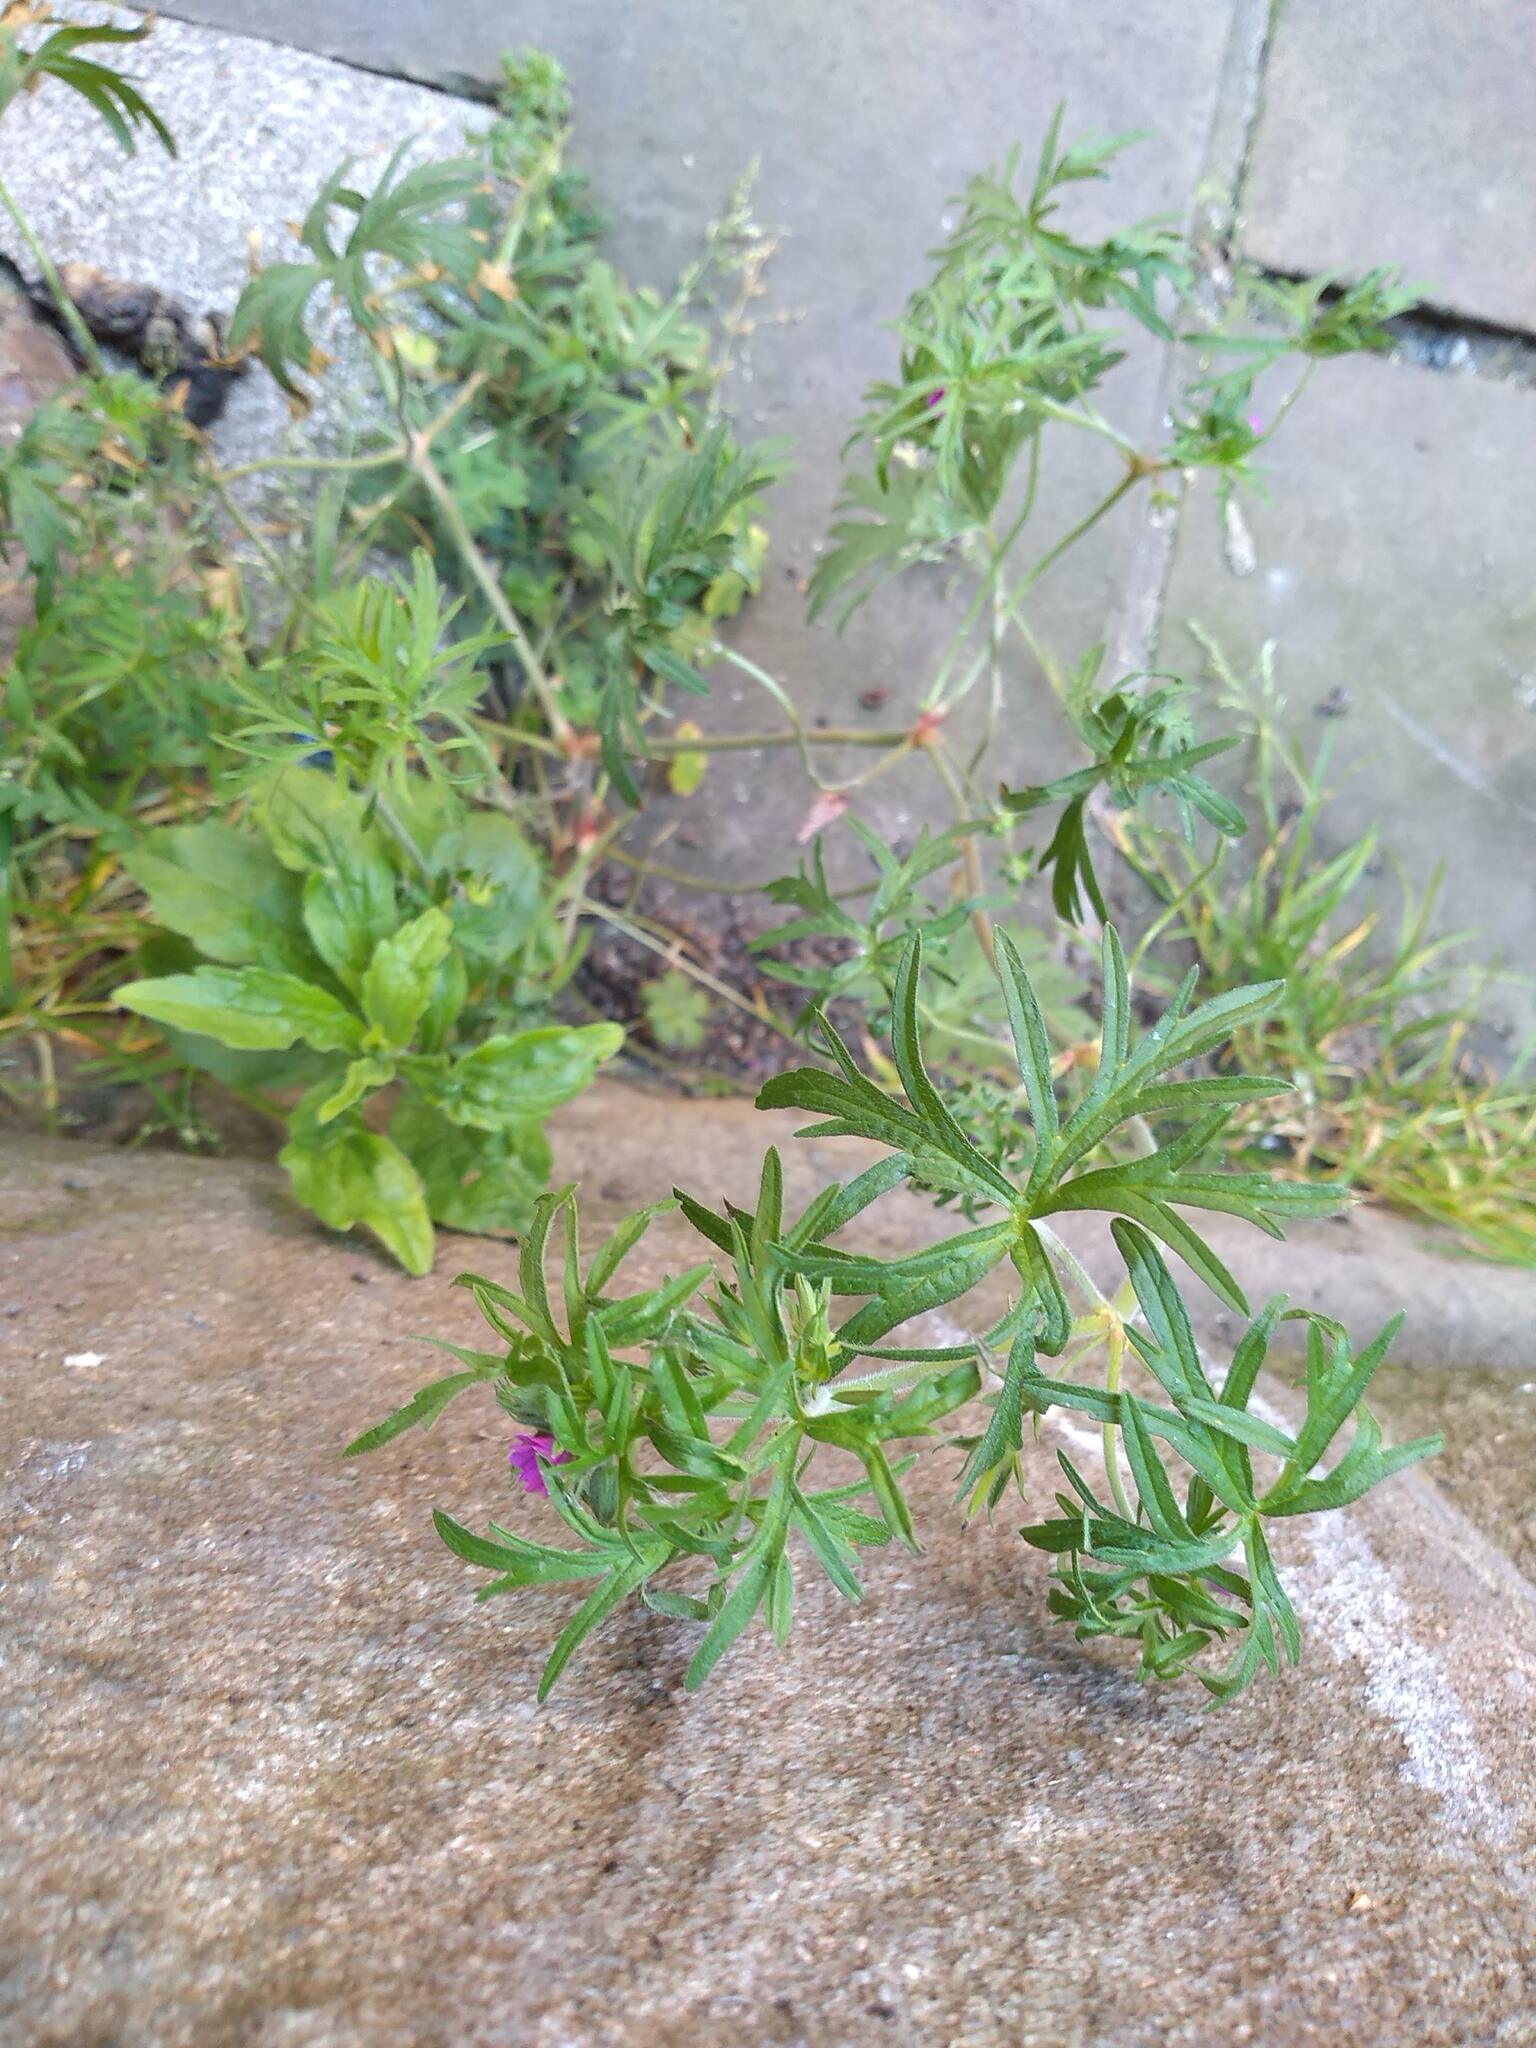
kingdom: Plantae
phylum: Tracheophyta
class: Magnoliopsida
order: Geraniales
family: Geraniaceae
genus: Geranium
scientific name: Geranium dissectum
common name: Cut-leaved crane's-bill
